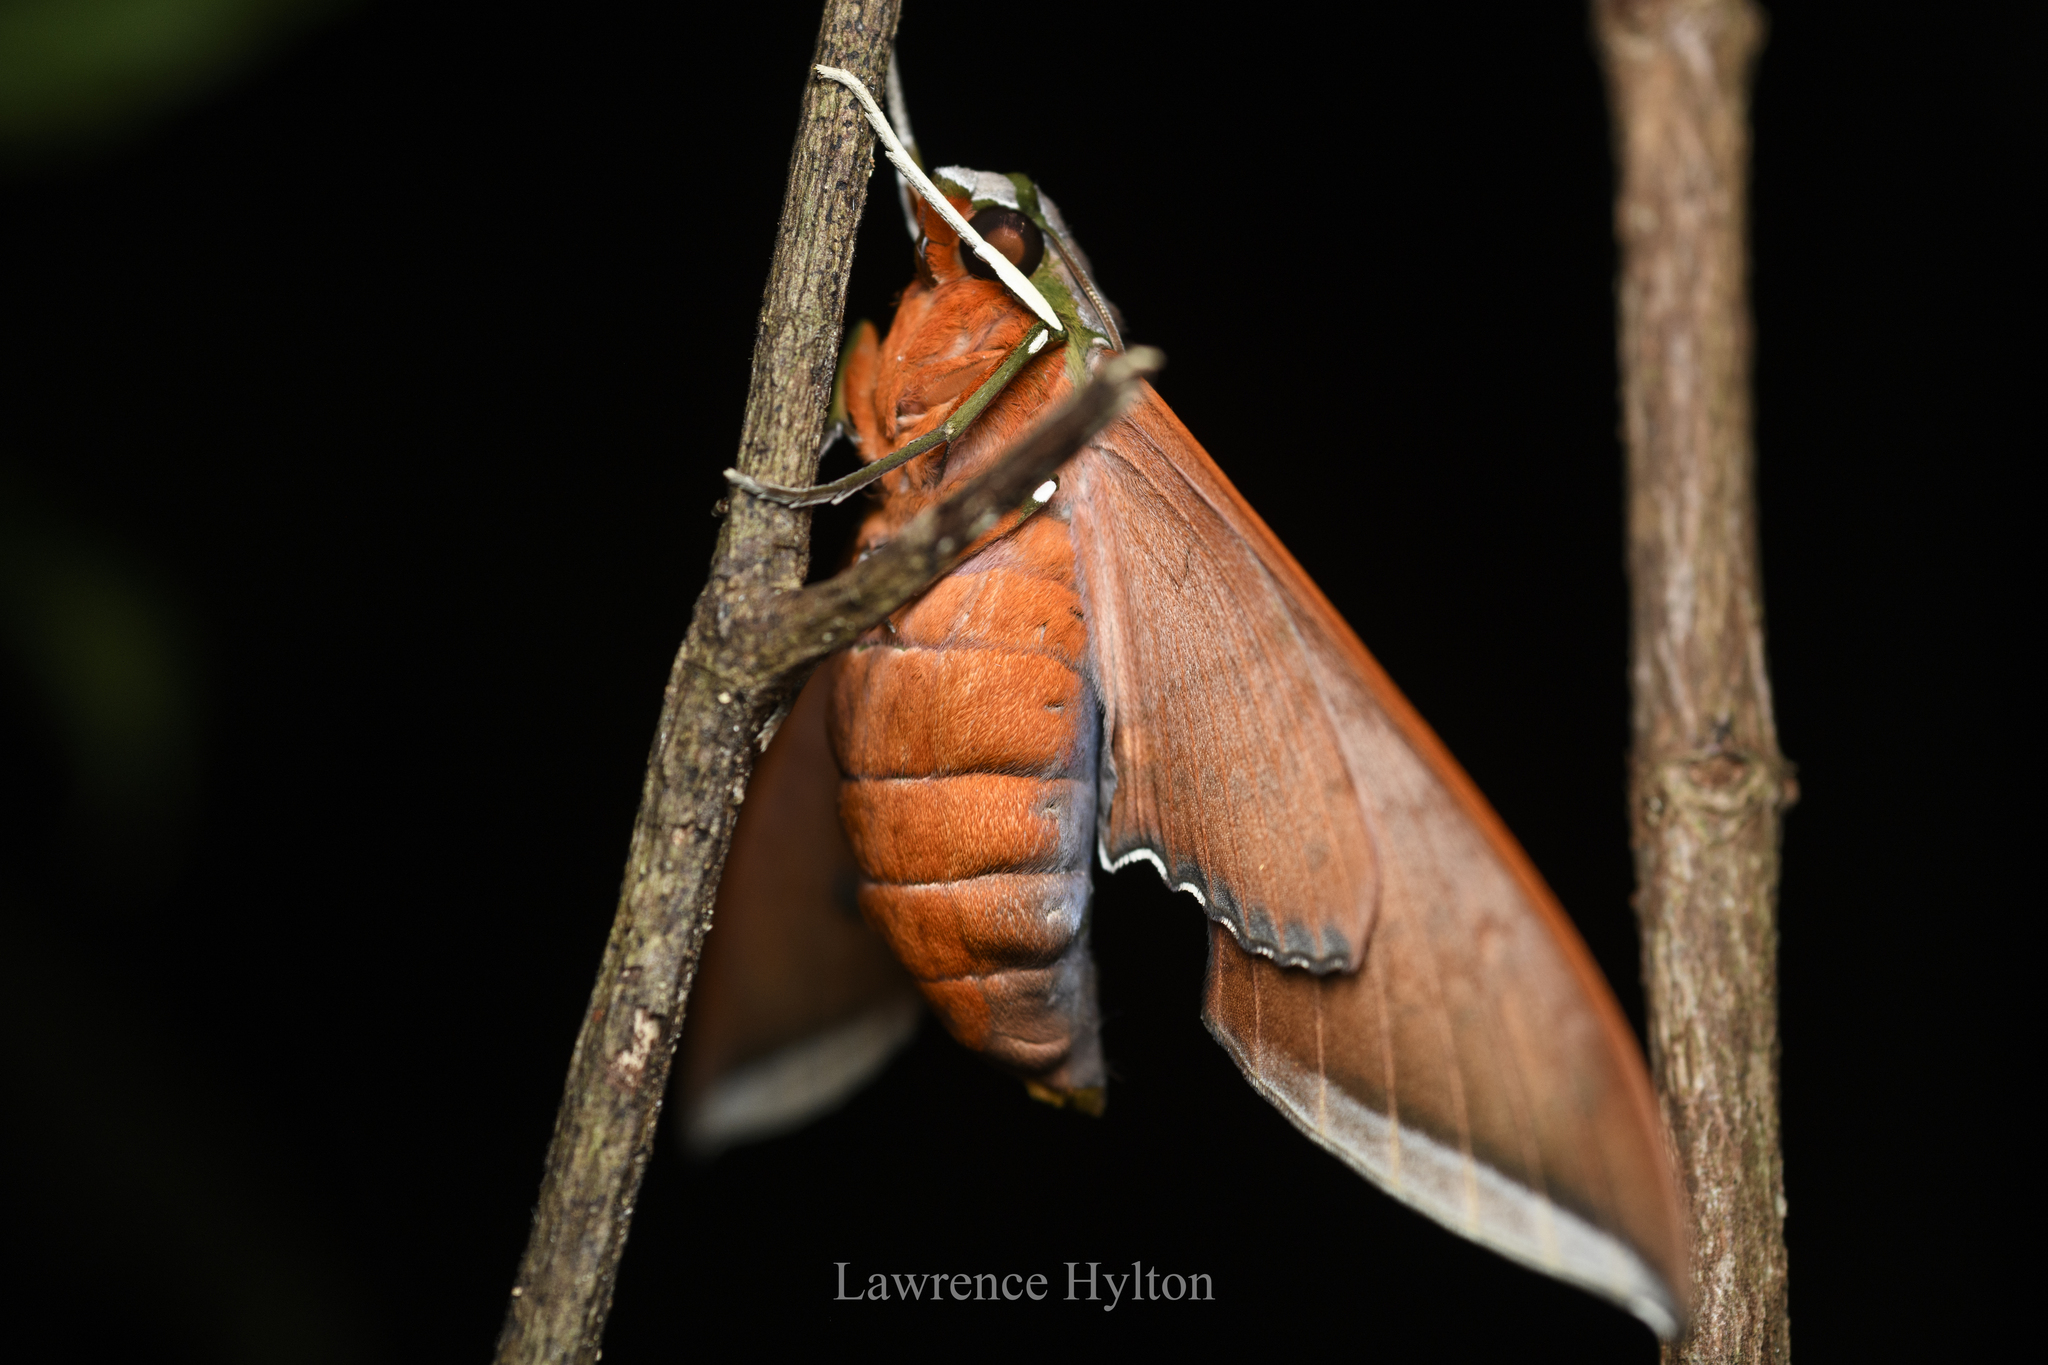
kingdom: Animalia
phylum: Arthropoda
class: Insecta
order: Lepidoptera
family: Sphingidae
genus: Ambulyx
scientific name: Ambulyx moorei
